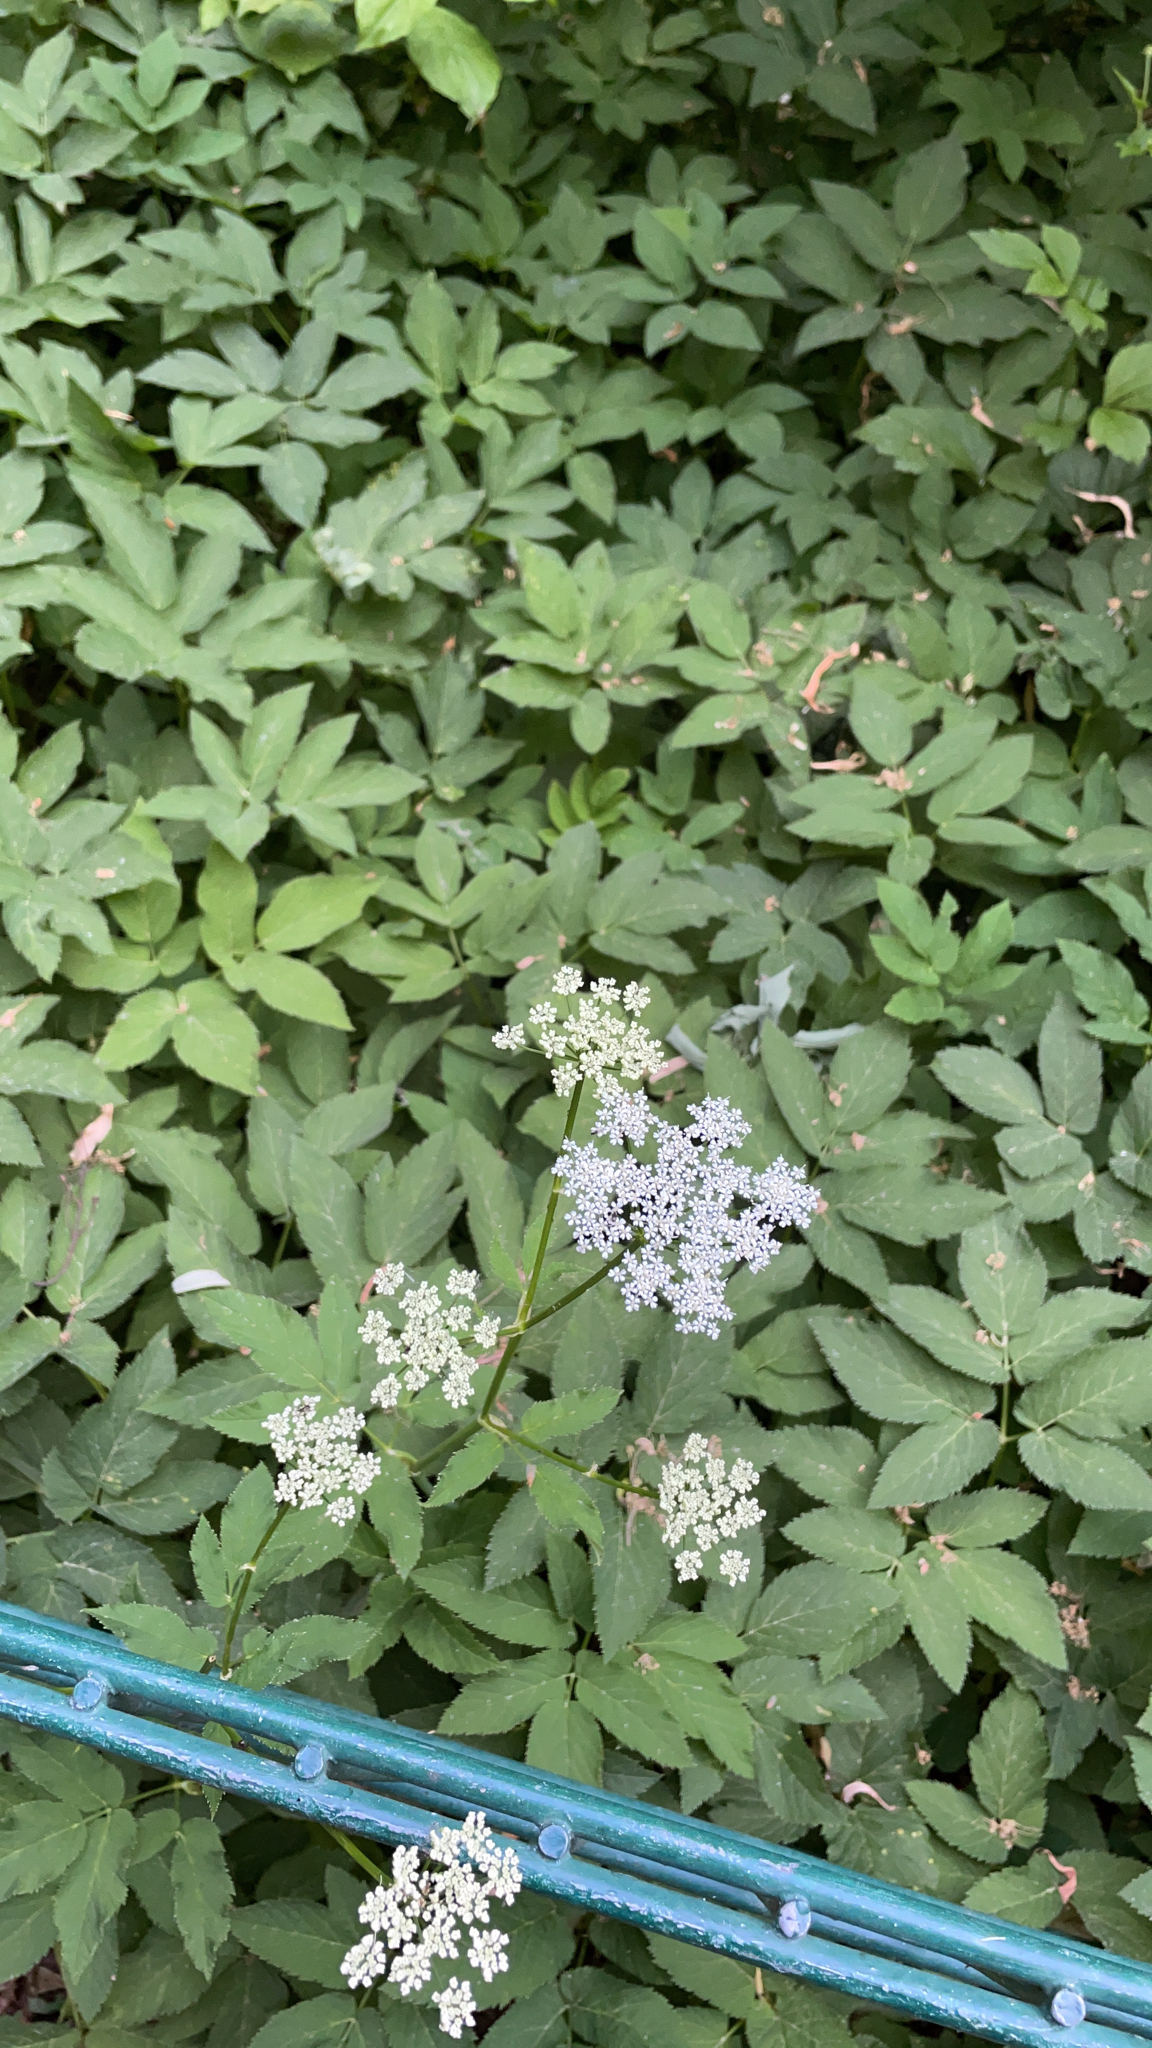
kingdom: Plantae
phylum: Tracheophyta
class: Magnoliopsida
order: Apiales
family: Apiaceae
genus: Aegopodium
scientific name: Aegopodium podagraria
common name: Ground-elder
